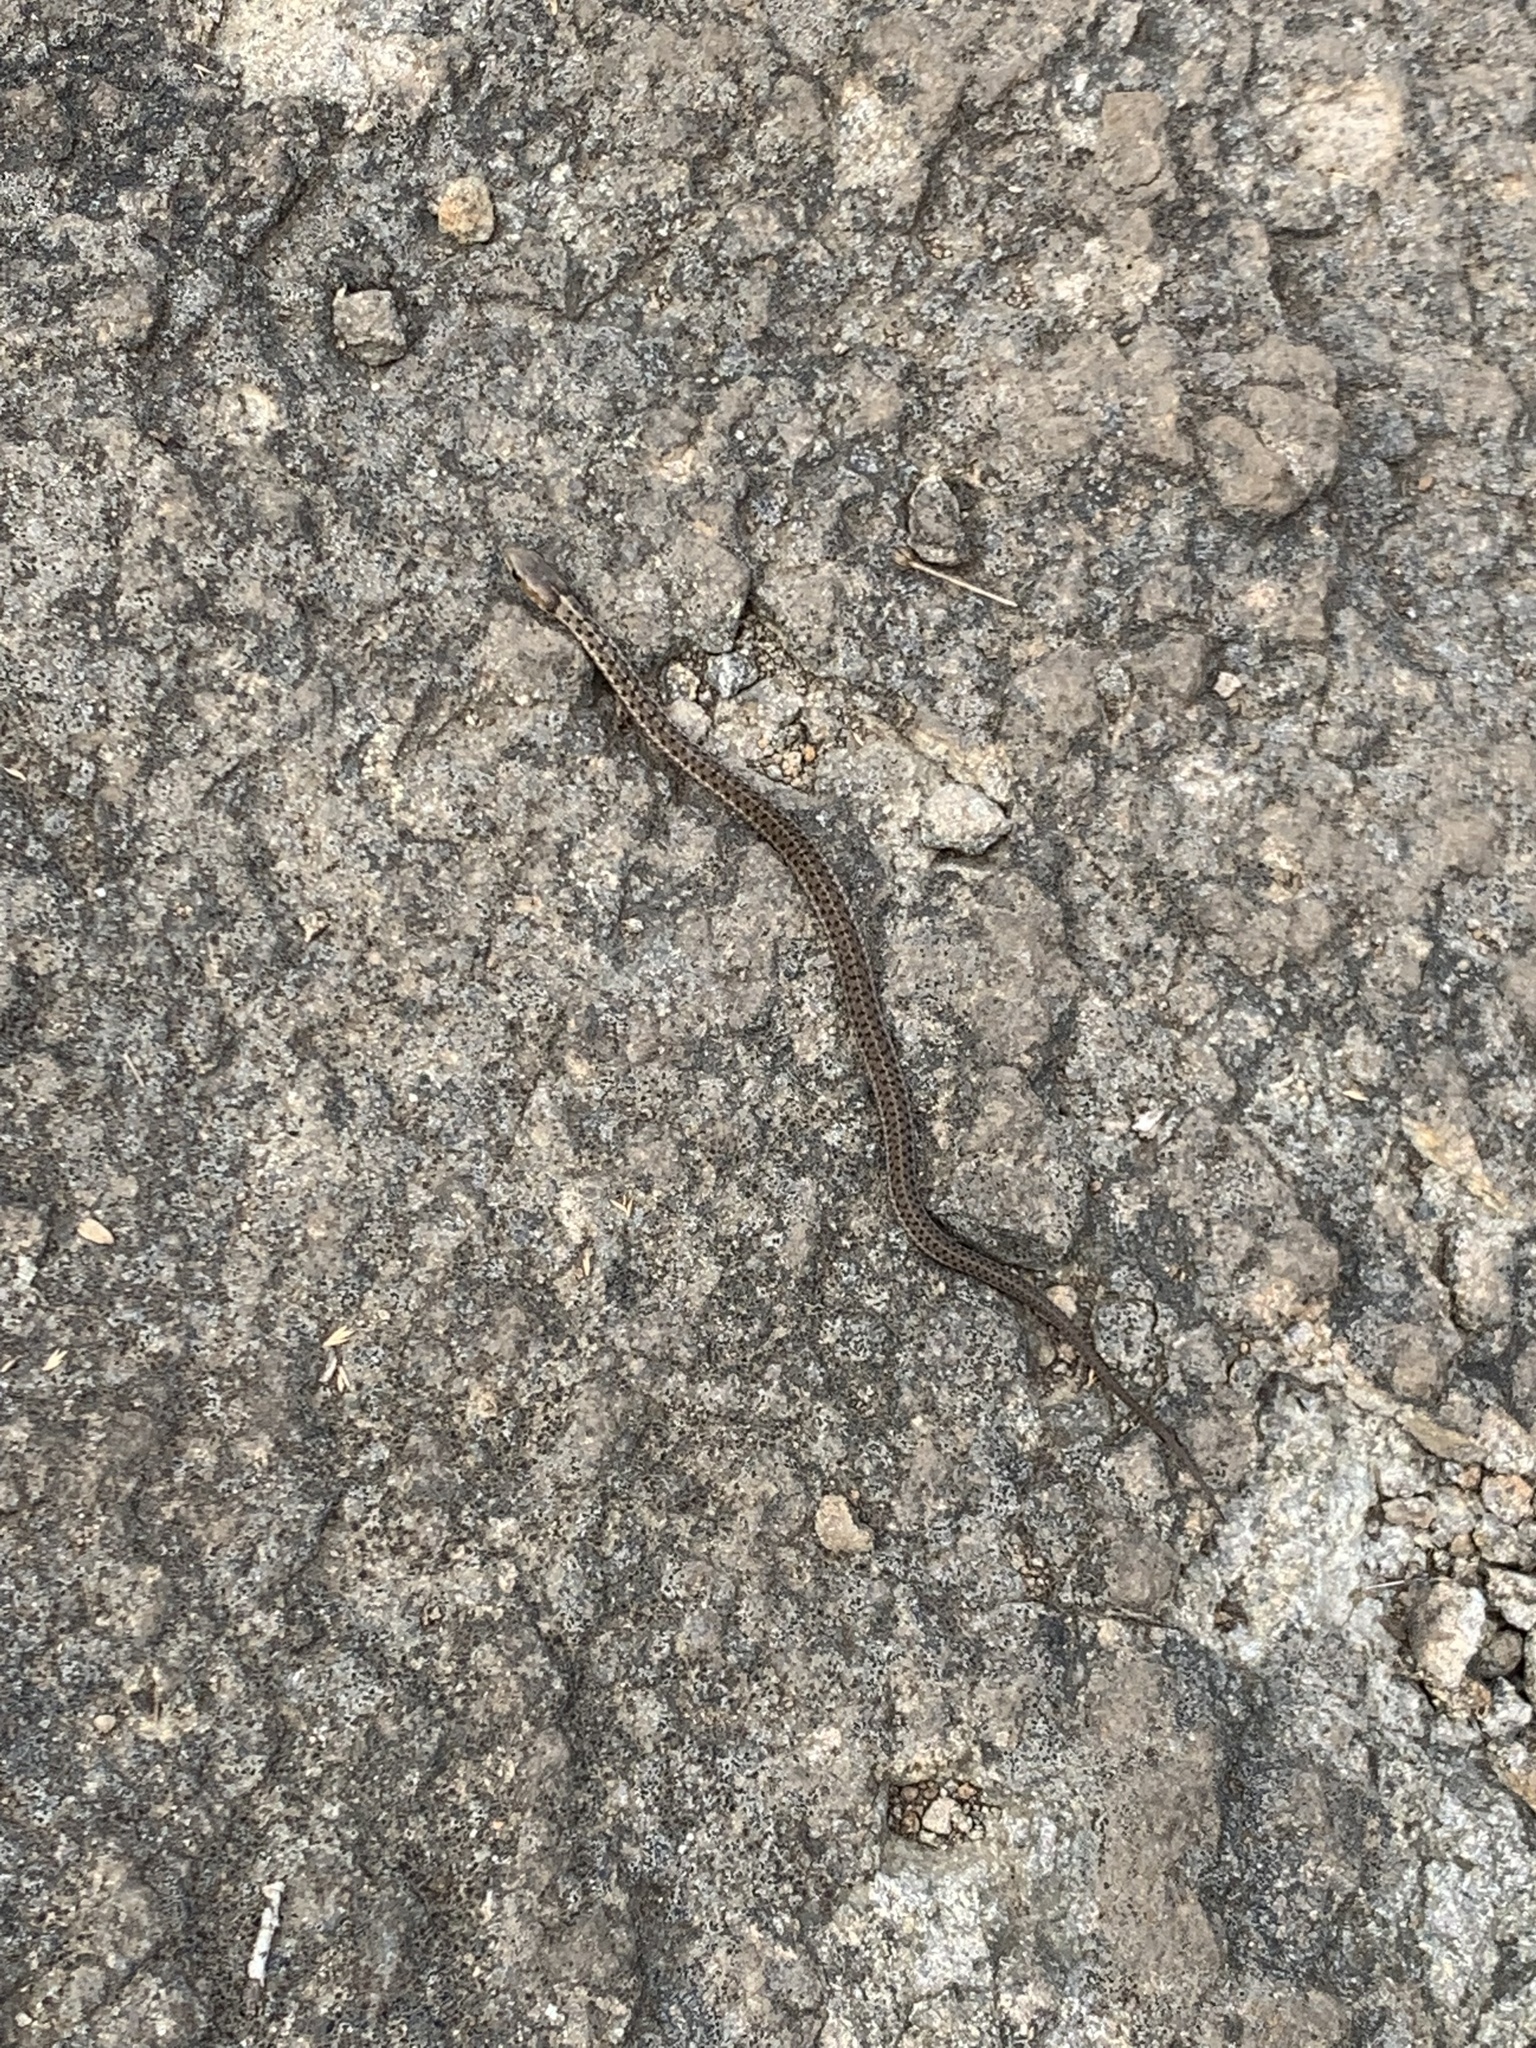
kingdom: Animalia
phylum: Chordata
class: Squamata
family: Colubridae
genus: Thamnophis
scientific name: Thamnophis sirtalis
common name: Common garter snake
